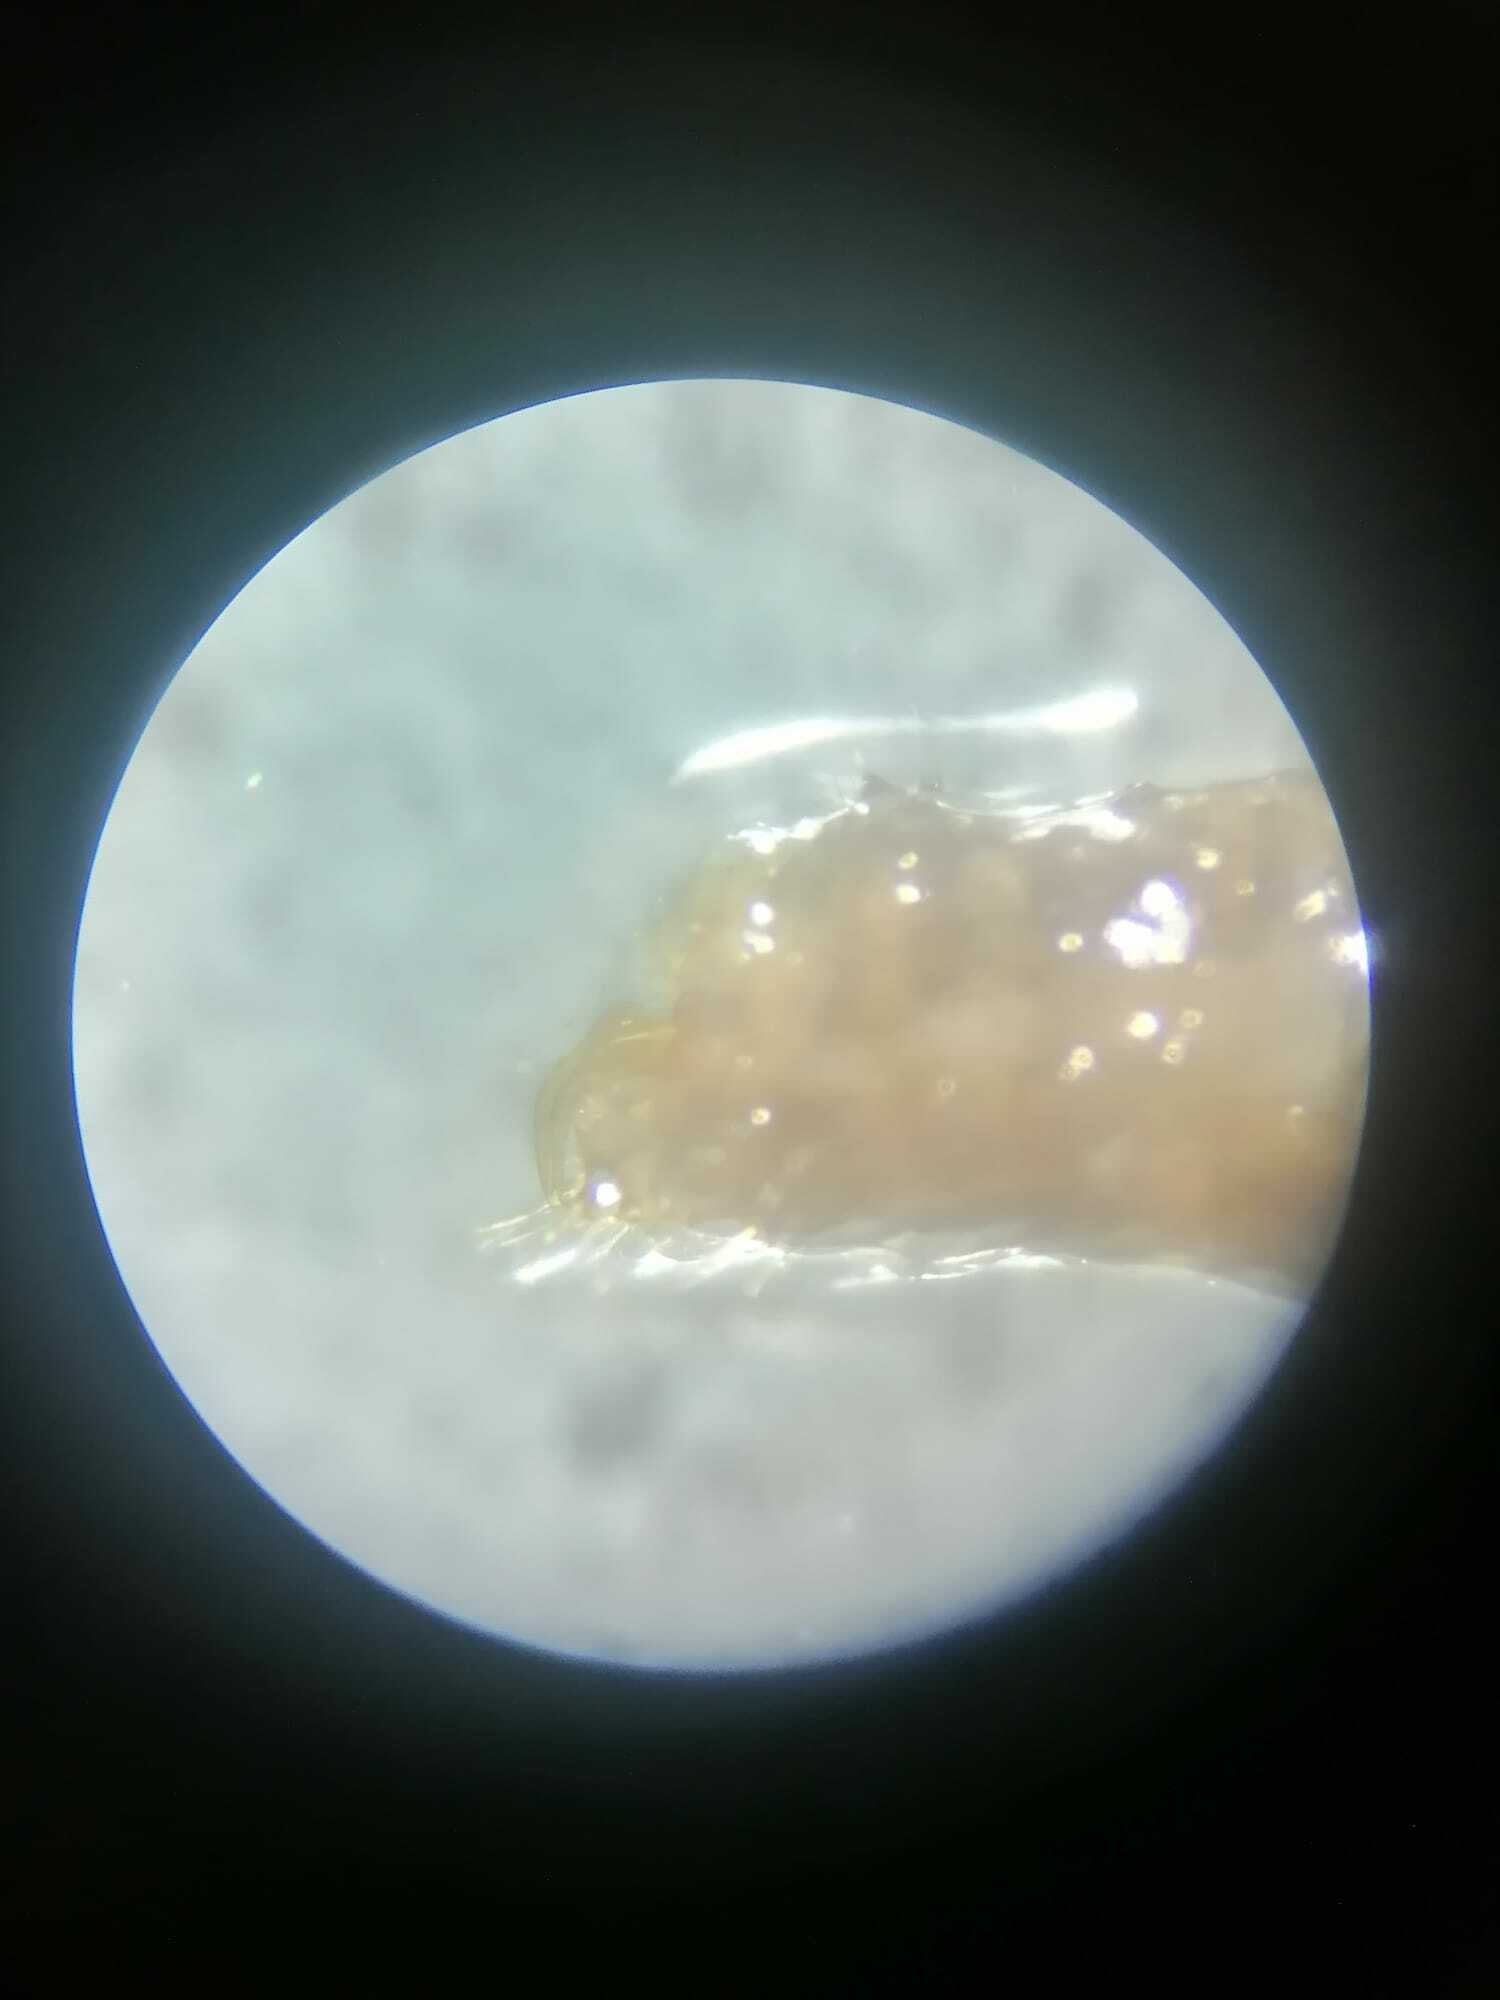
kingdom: Animalia
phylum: Arthropoda
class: Insecta
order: Neuroptera
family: Hemerobiidae
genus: Micromus
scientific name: Micromus paganus
